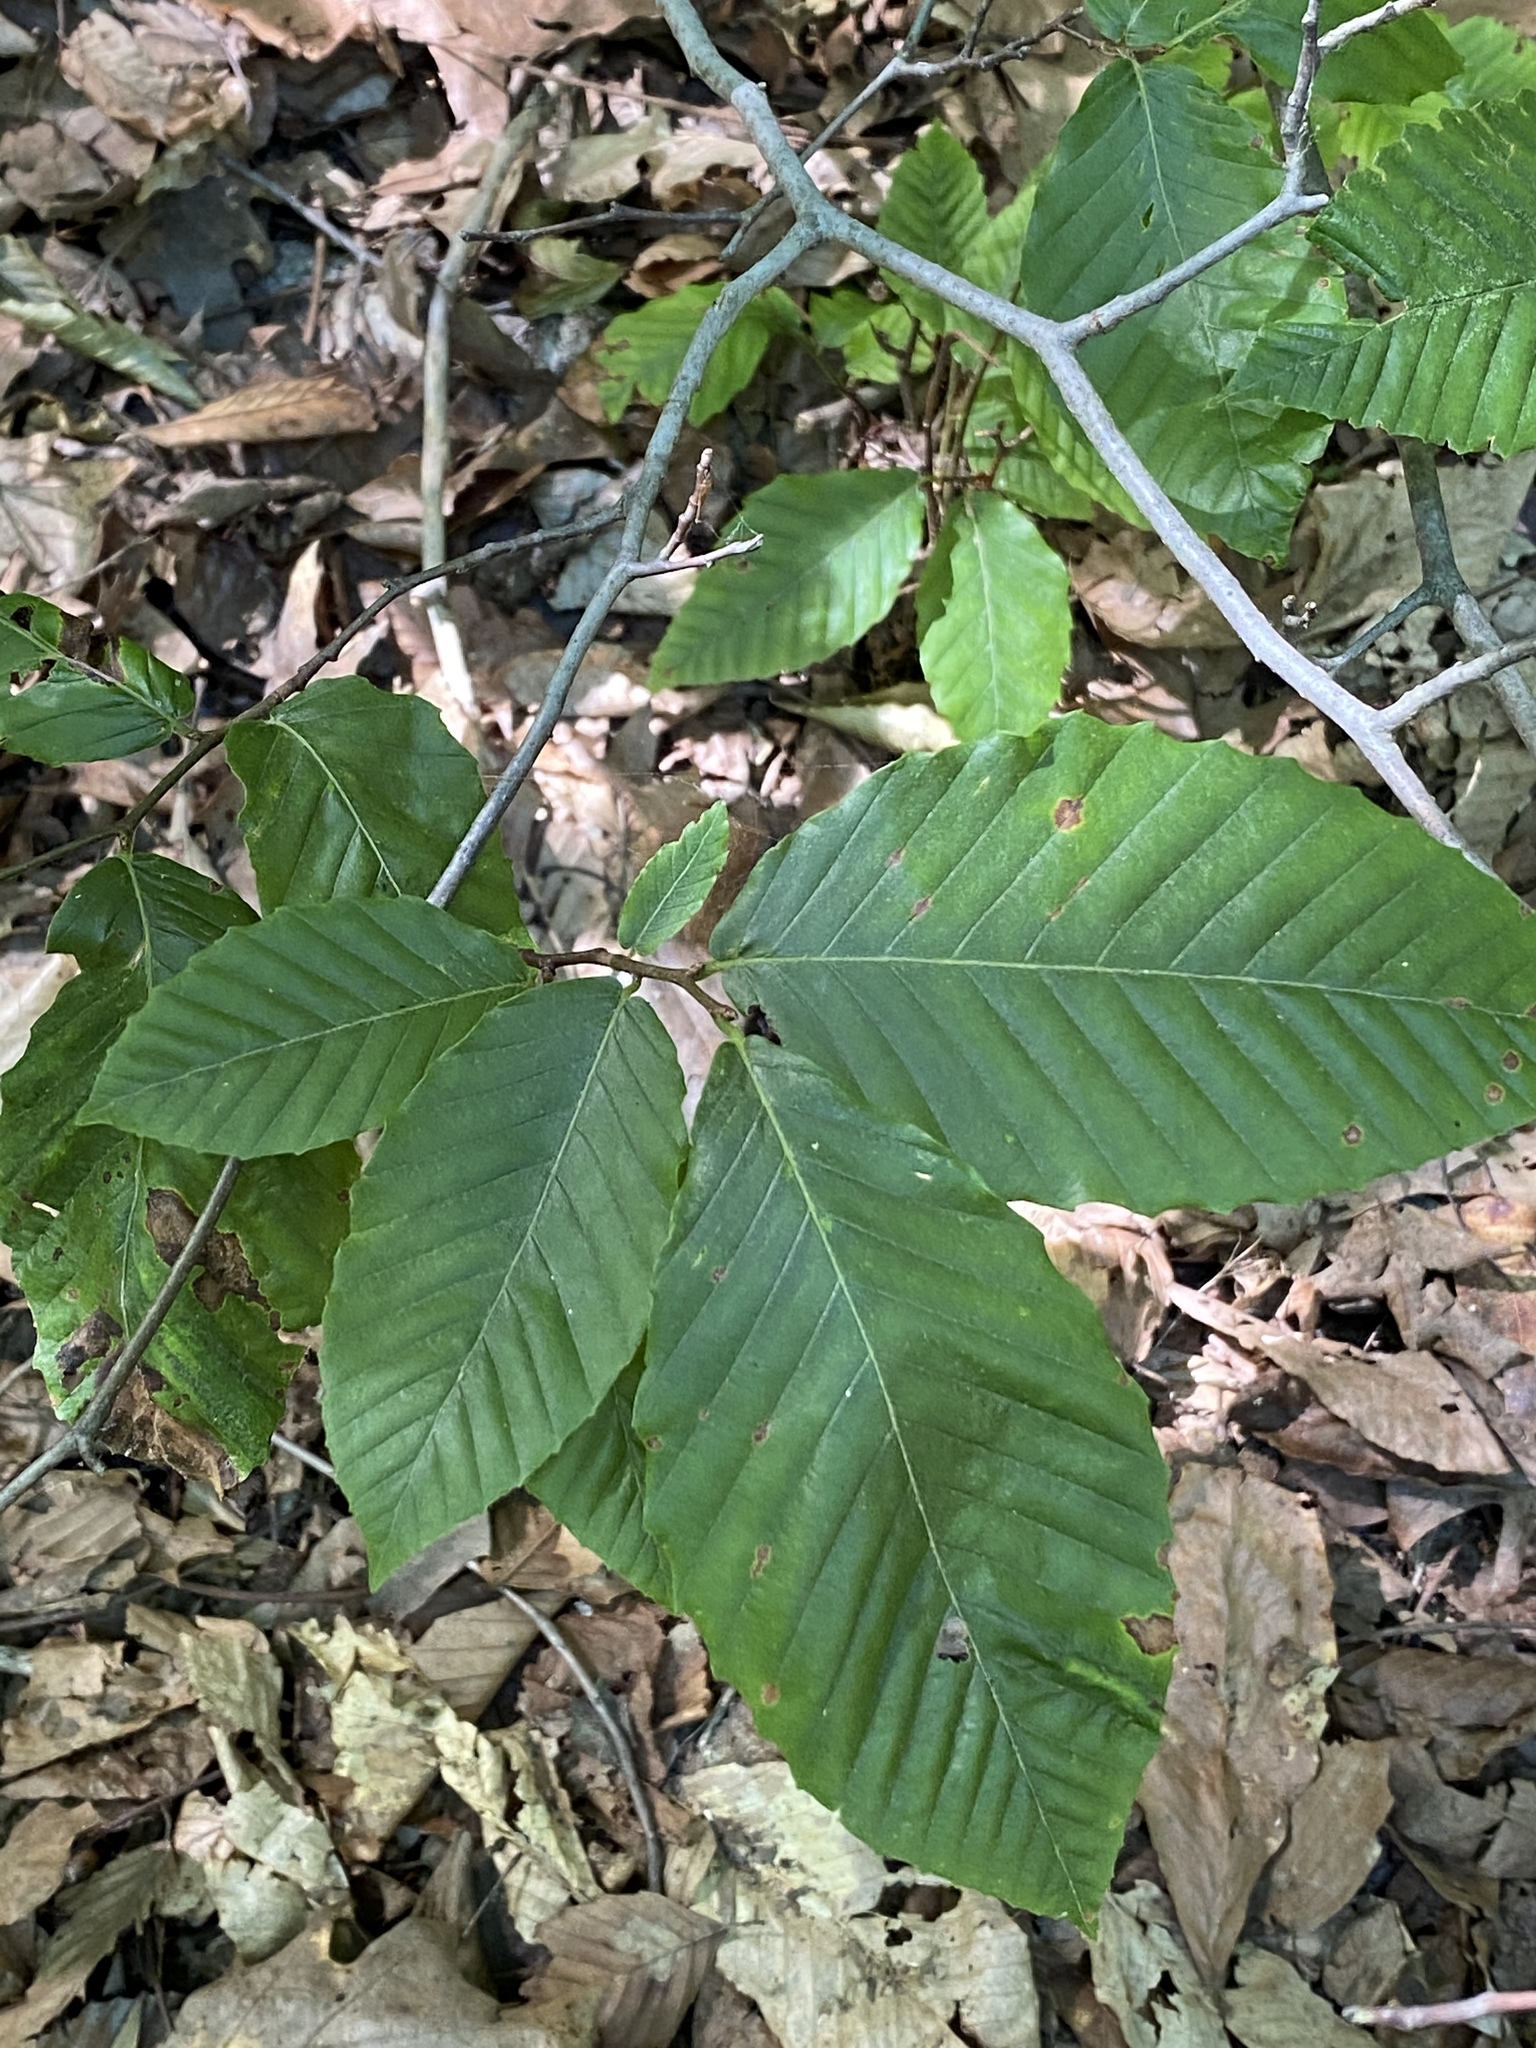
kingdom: Plantae
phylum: Tracheophyta
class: Magnoliopsida
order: Fagales
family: Fagaceae
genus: Fagus
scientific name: Fagus grandifolia
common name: American beech
